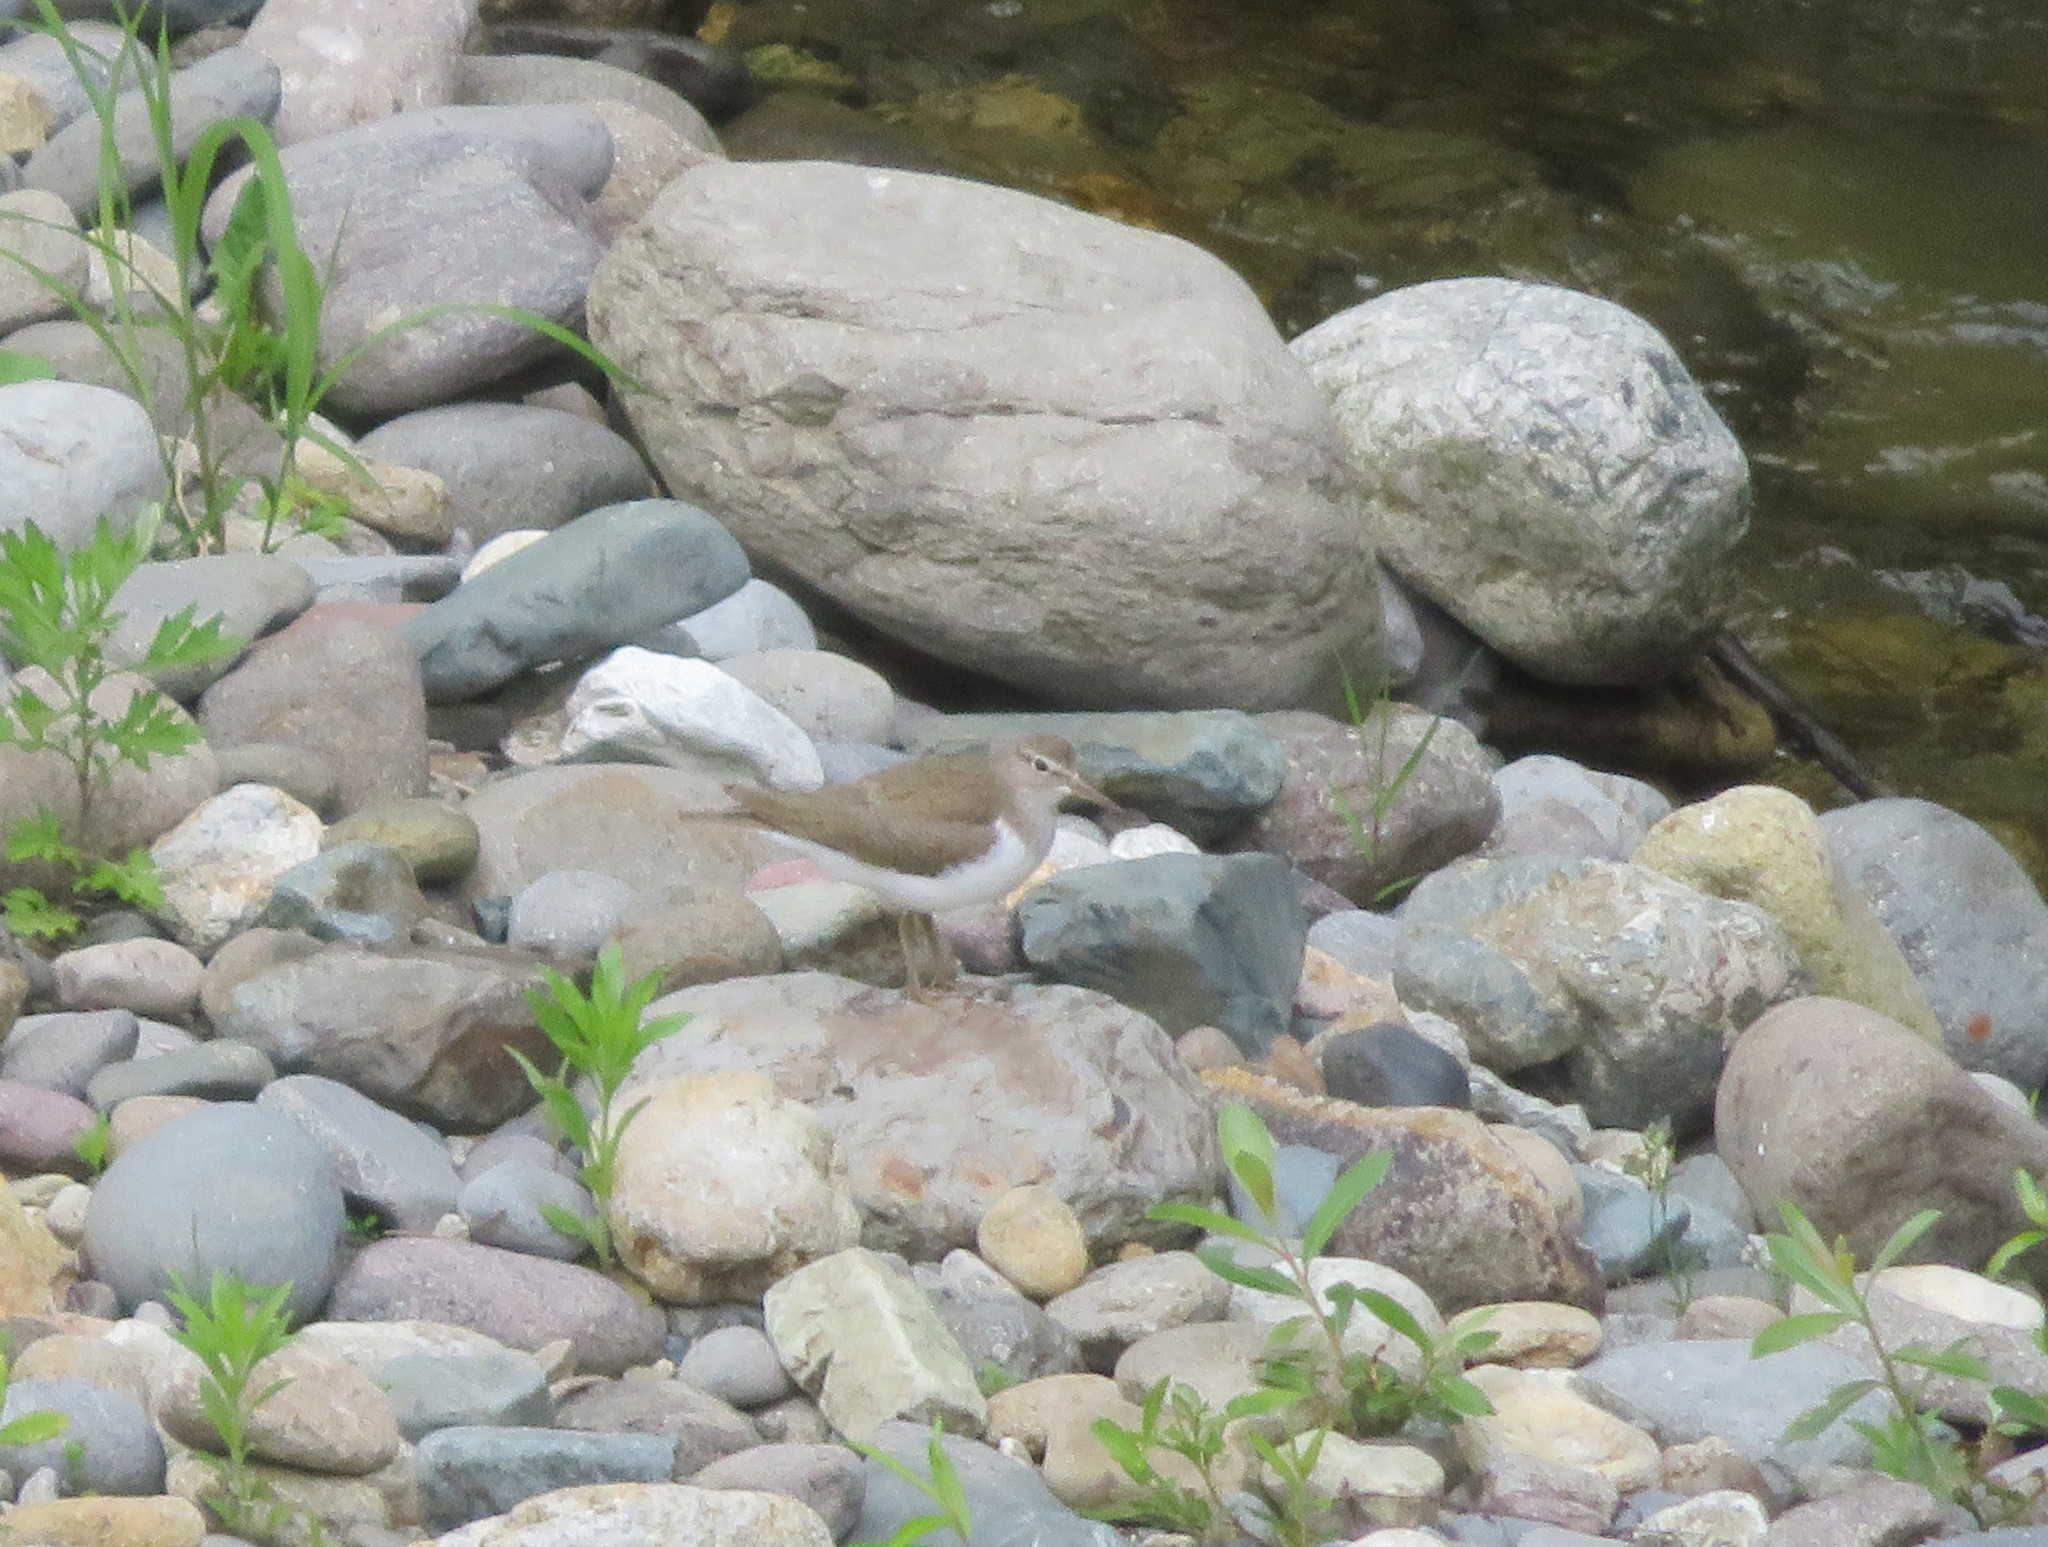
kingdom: Animalia
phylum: Chordata
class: Aves
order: Charadriiformes
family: Scolopacidae
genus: Actitis
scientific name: Actitis hypoleucos
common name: Common sandpiper
